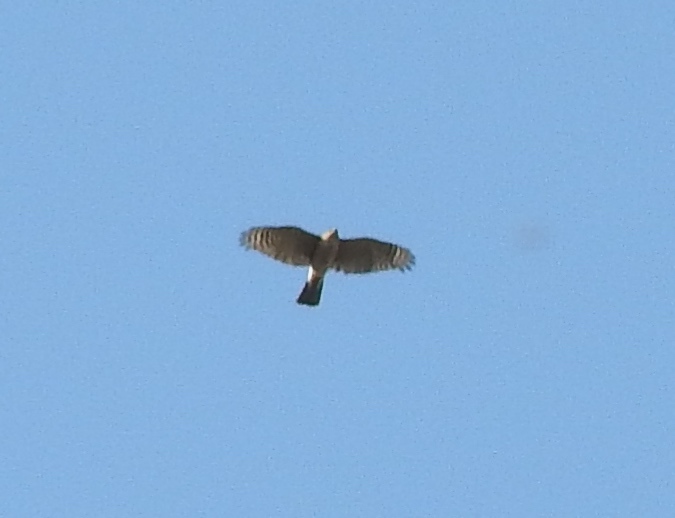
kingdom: Animalia
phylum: Chordata
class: Aves
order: Accipitriformes
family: Accipitridae
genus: Accipiter
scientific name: Accipiter cooperii
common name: Cooper's hawk
